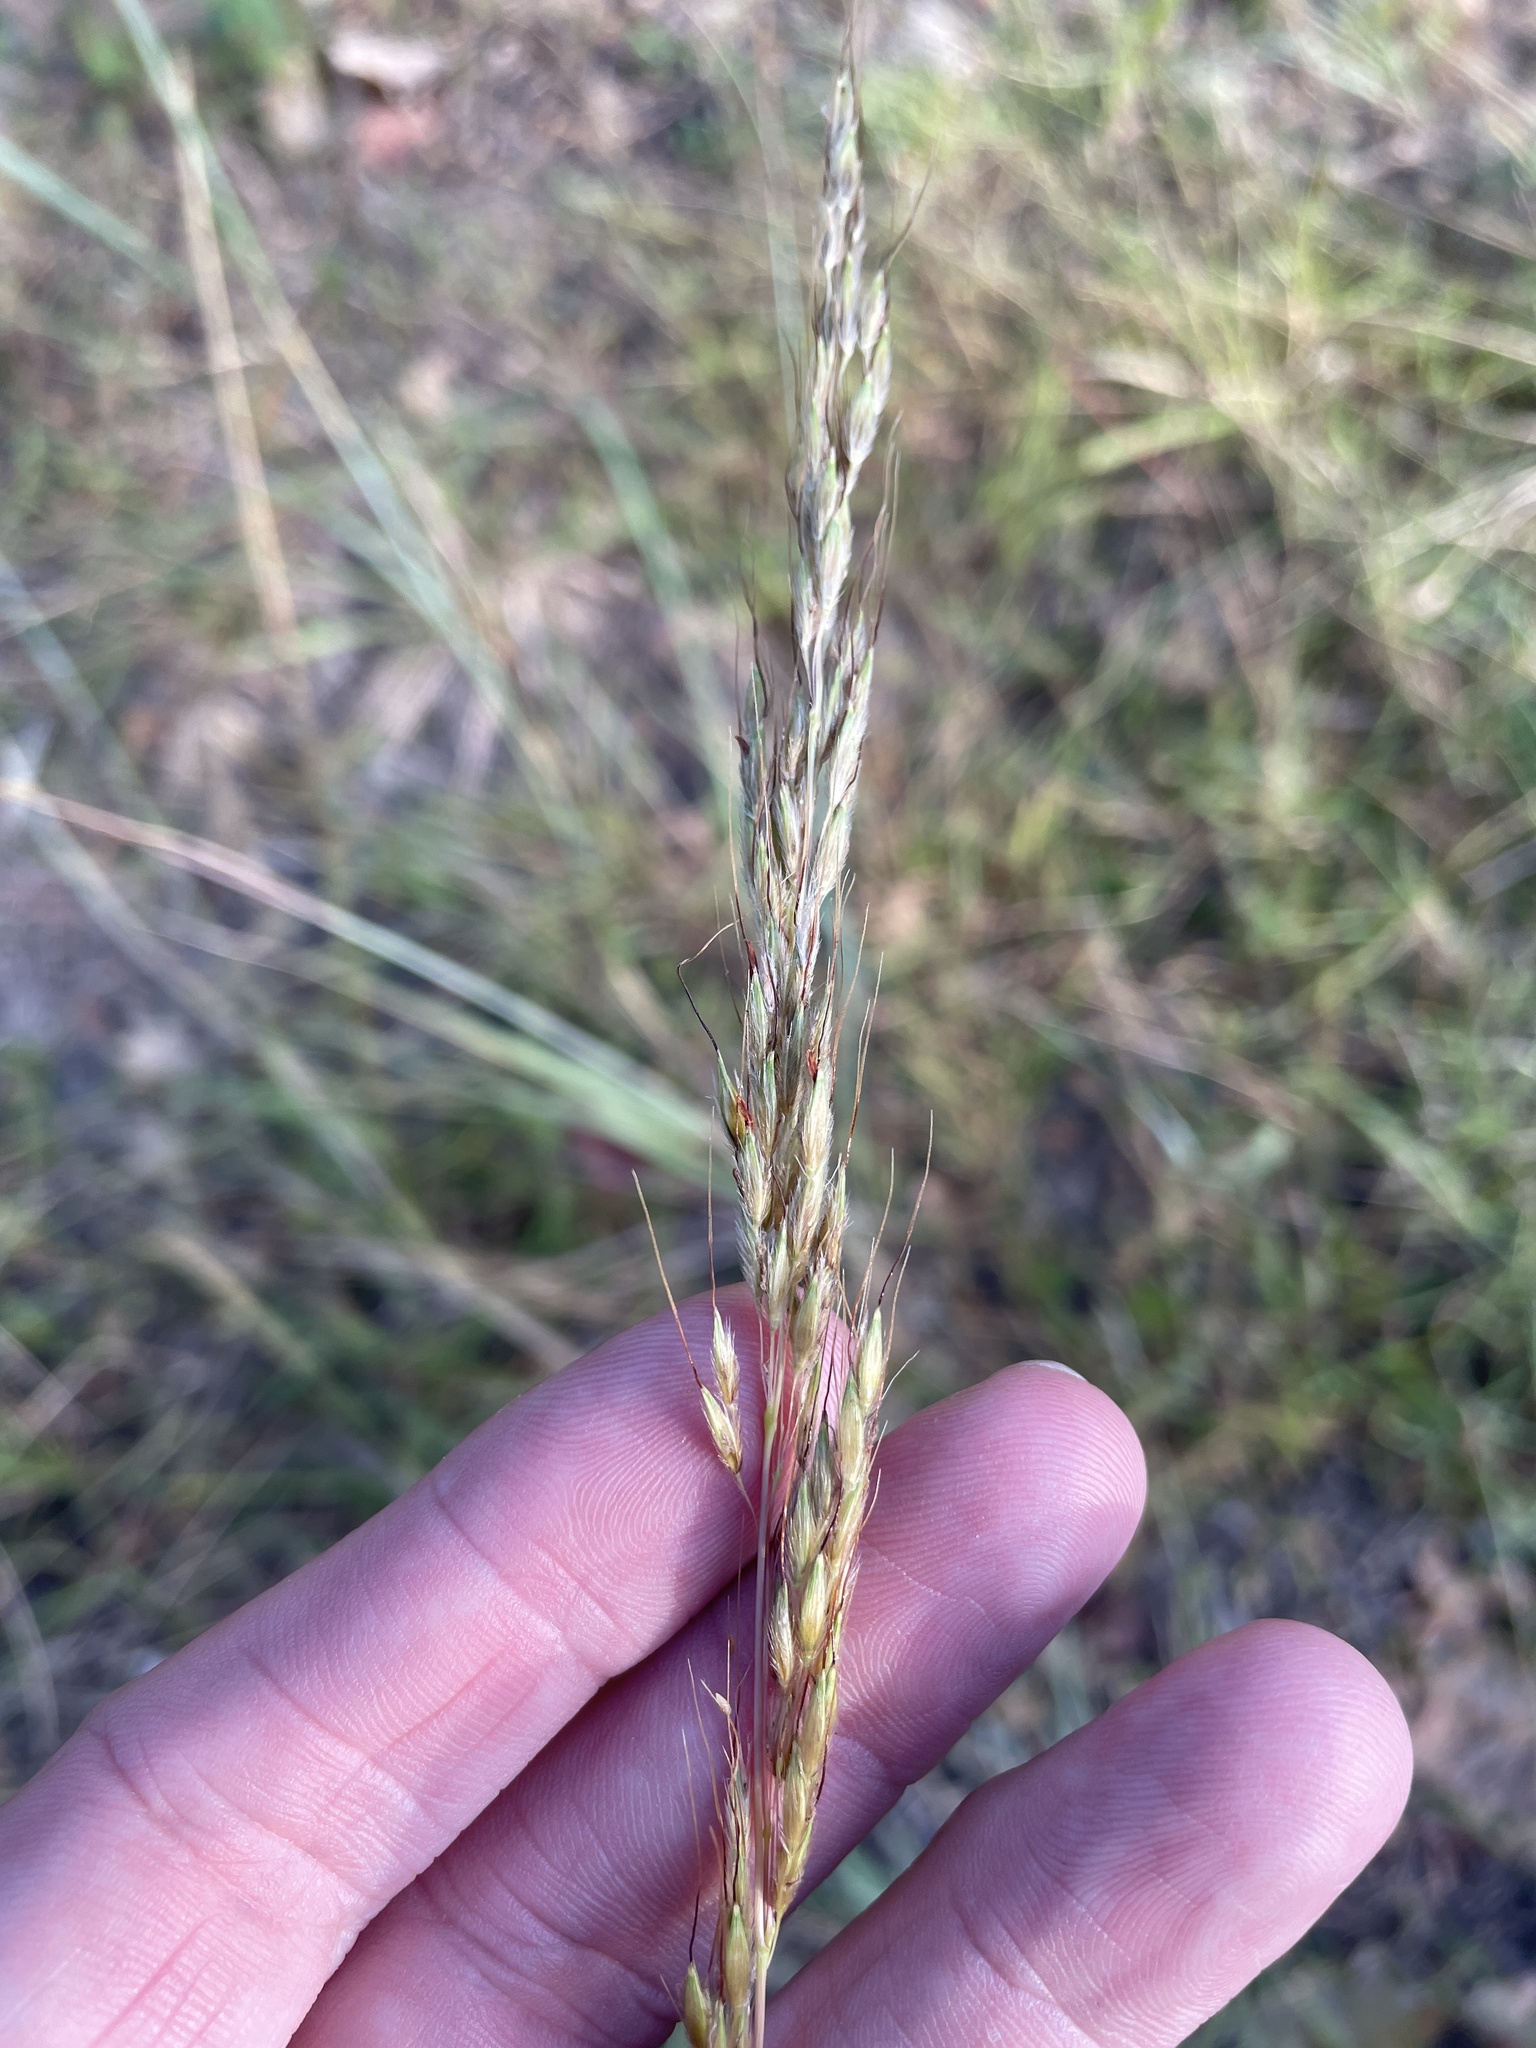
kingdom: Plantae
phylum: Tracheophyta
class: Liliopsida
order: Poales
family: Poaceae
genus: Sorghastrum
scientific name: Sorghastrum nutans
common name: Indian grass
